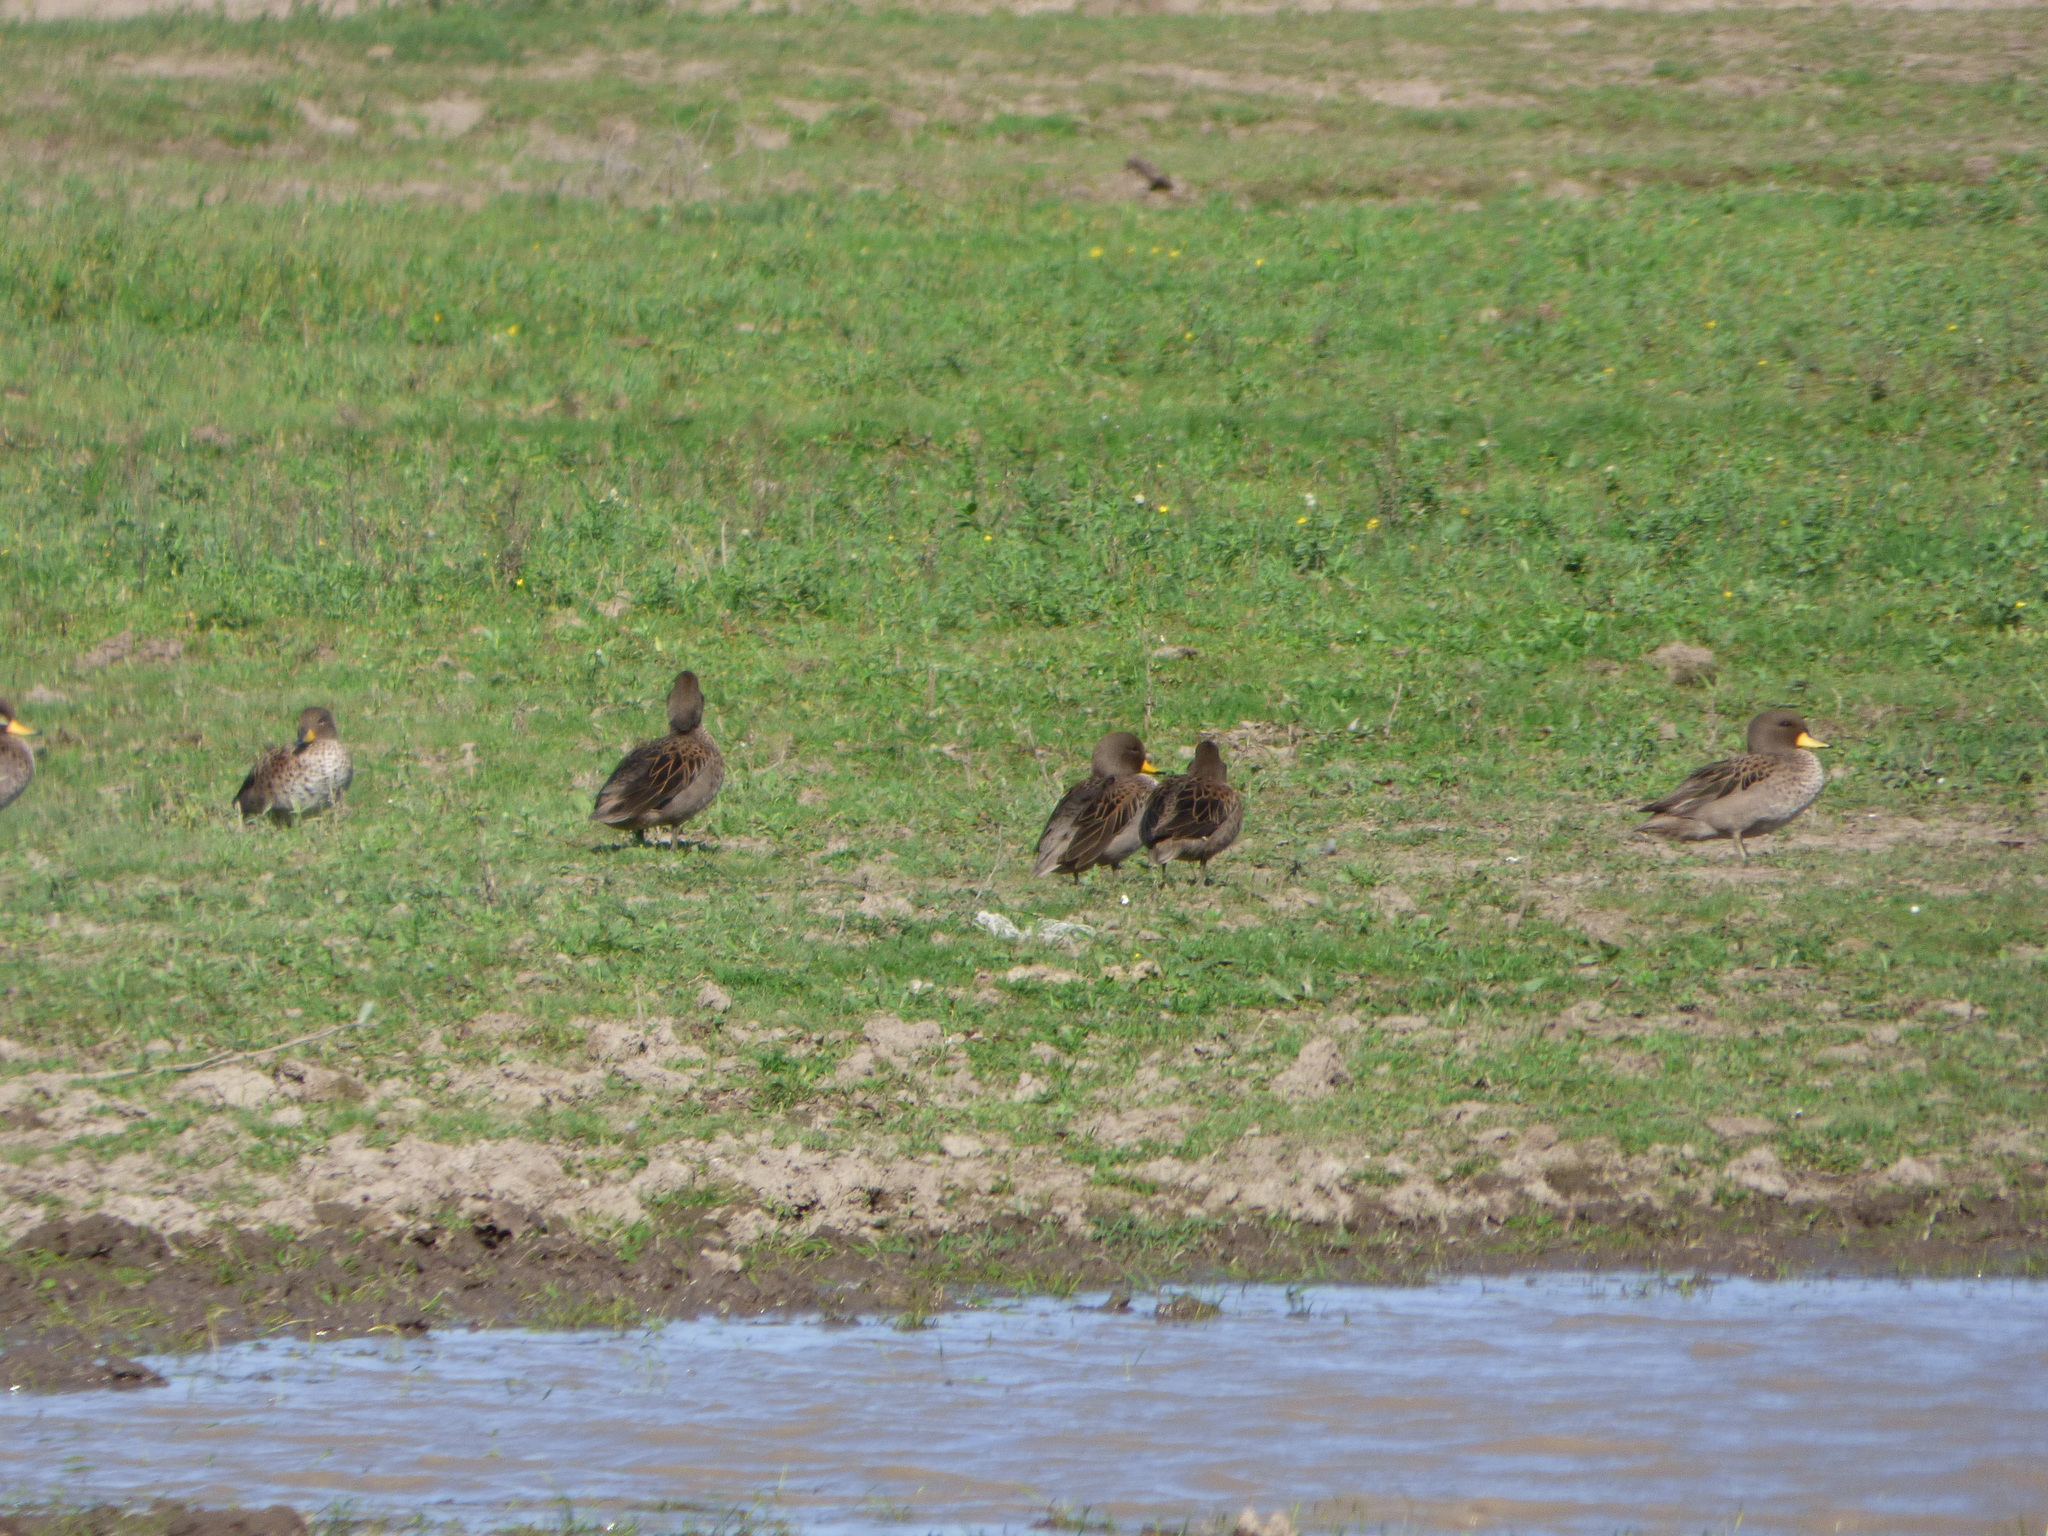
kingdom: Animalia
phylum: Chordata
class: Aves
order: Anseriformes
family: Anatidae
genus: Anas
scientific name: Anas flavirostris
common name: Yellow-billed teal
